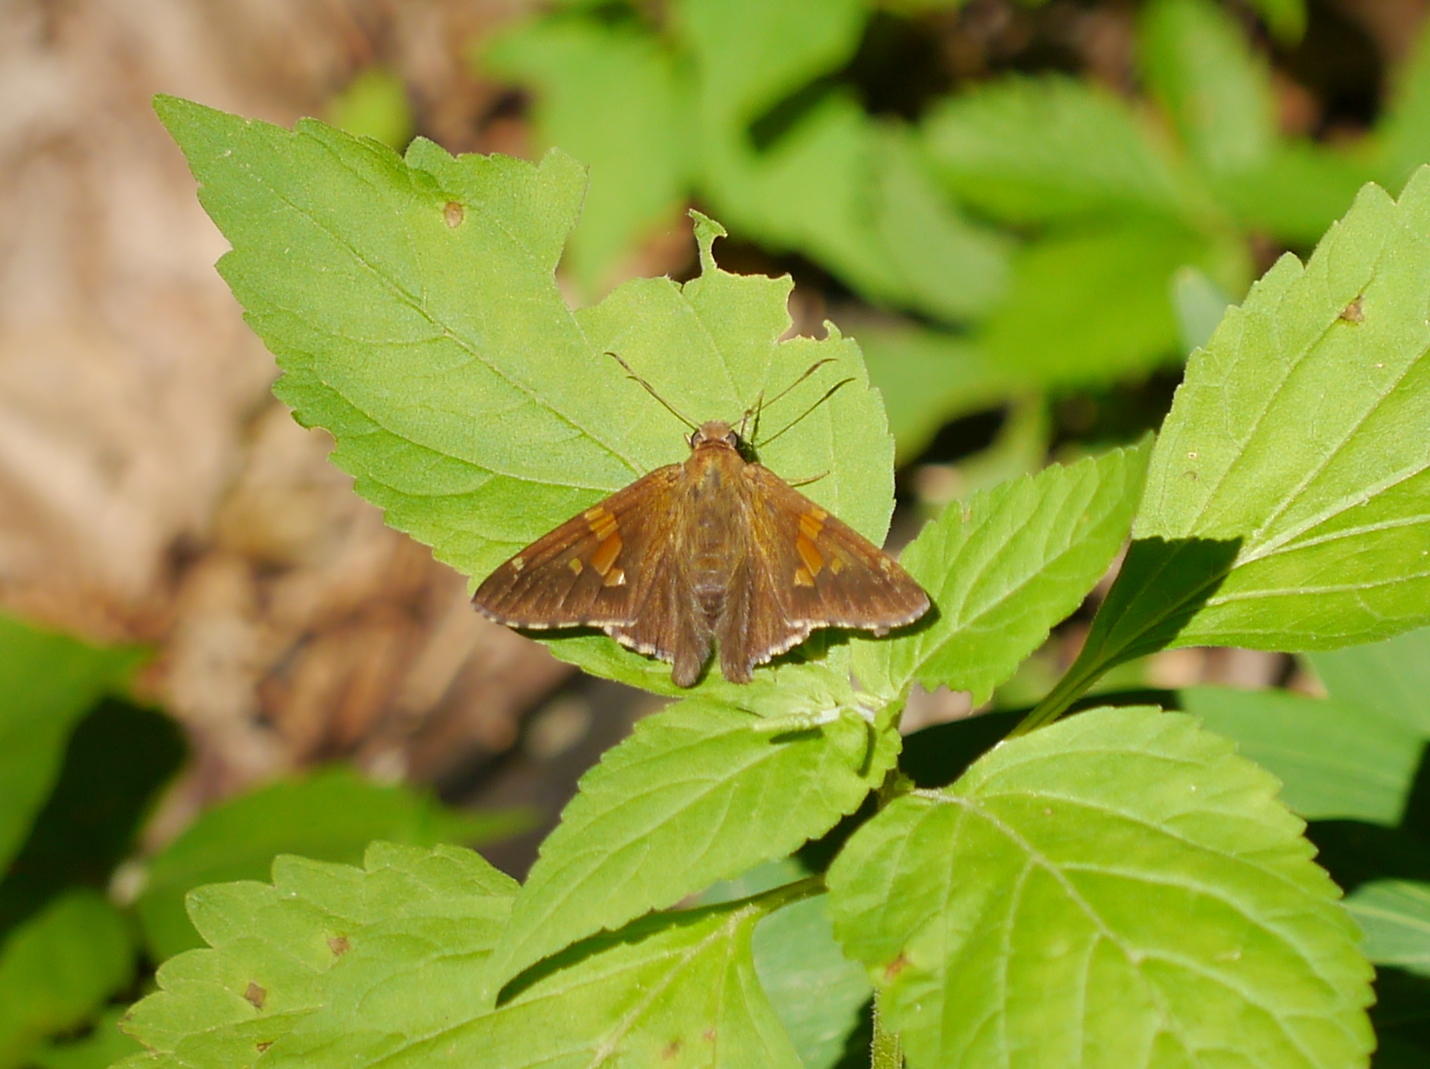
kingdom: Animalia
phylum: Arthropoda
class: Insecta
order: Lepidoptera
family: Hesperiidae
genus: Epargyreus
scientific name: Epargyreus clarus
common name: Silver-spotted skipper
